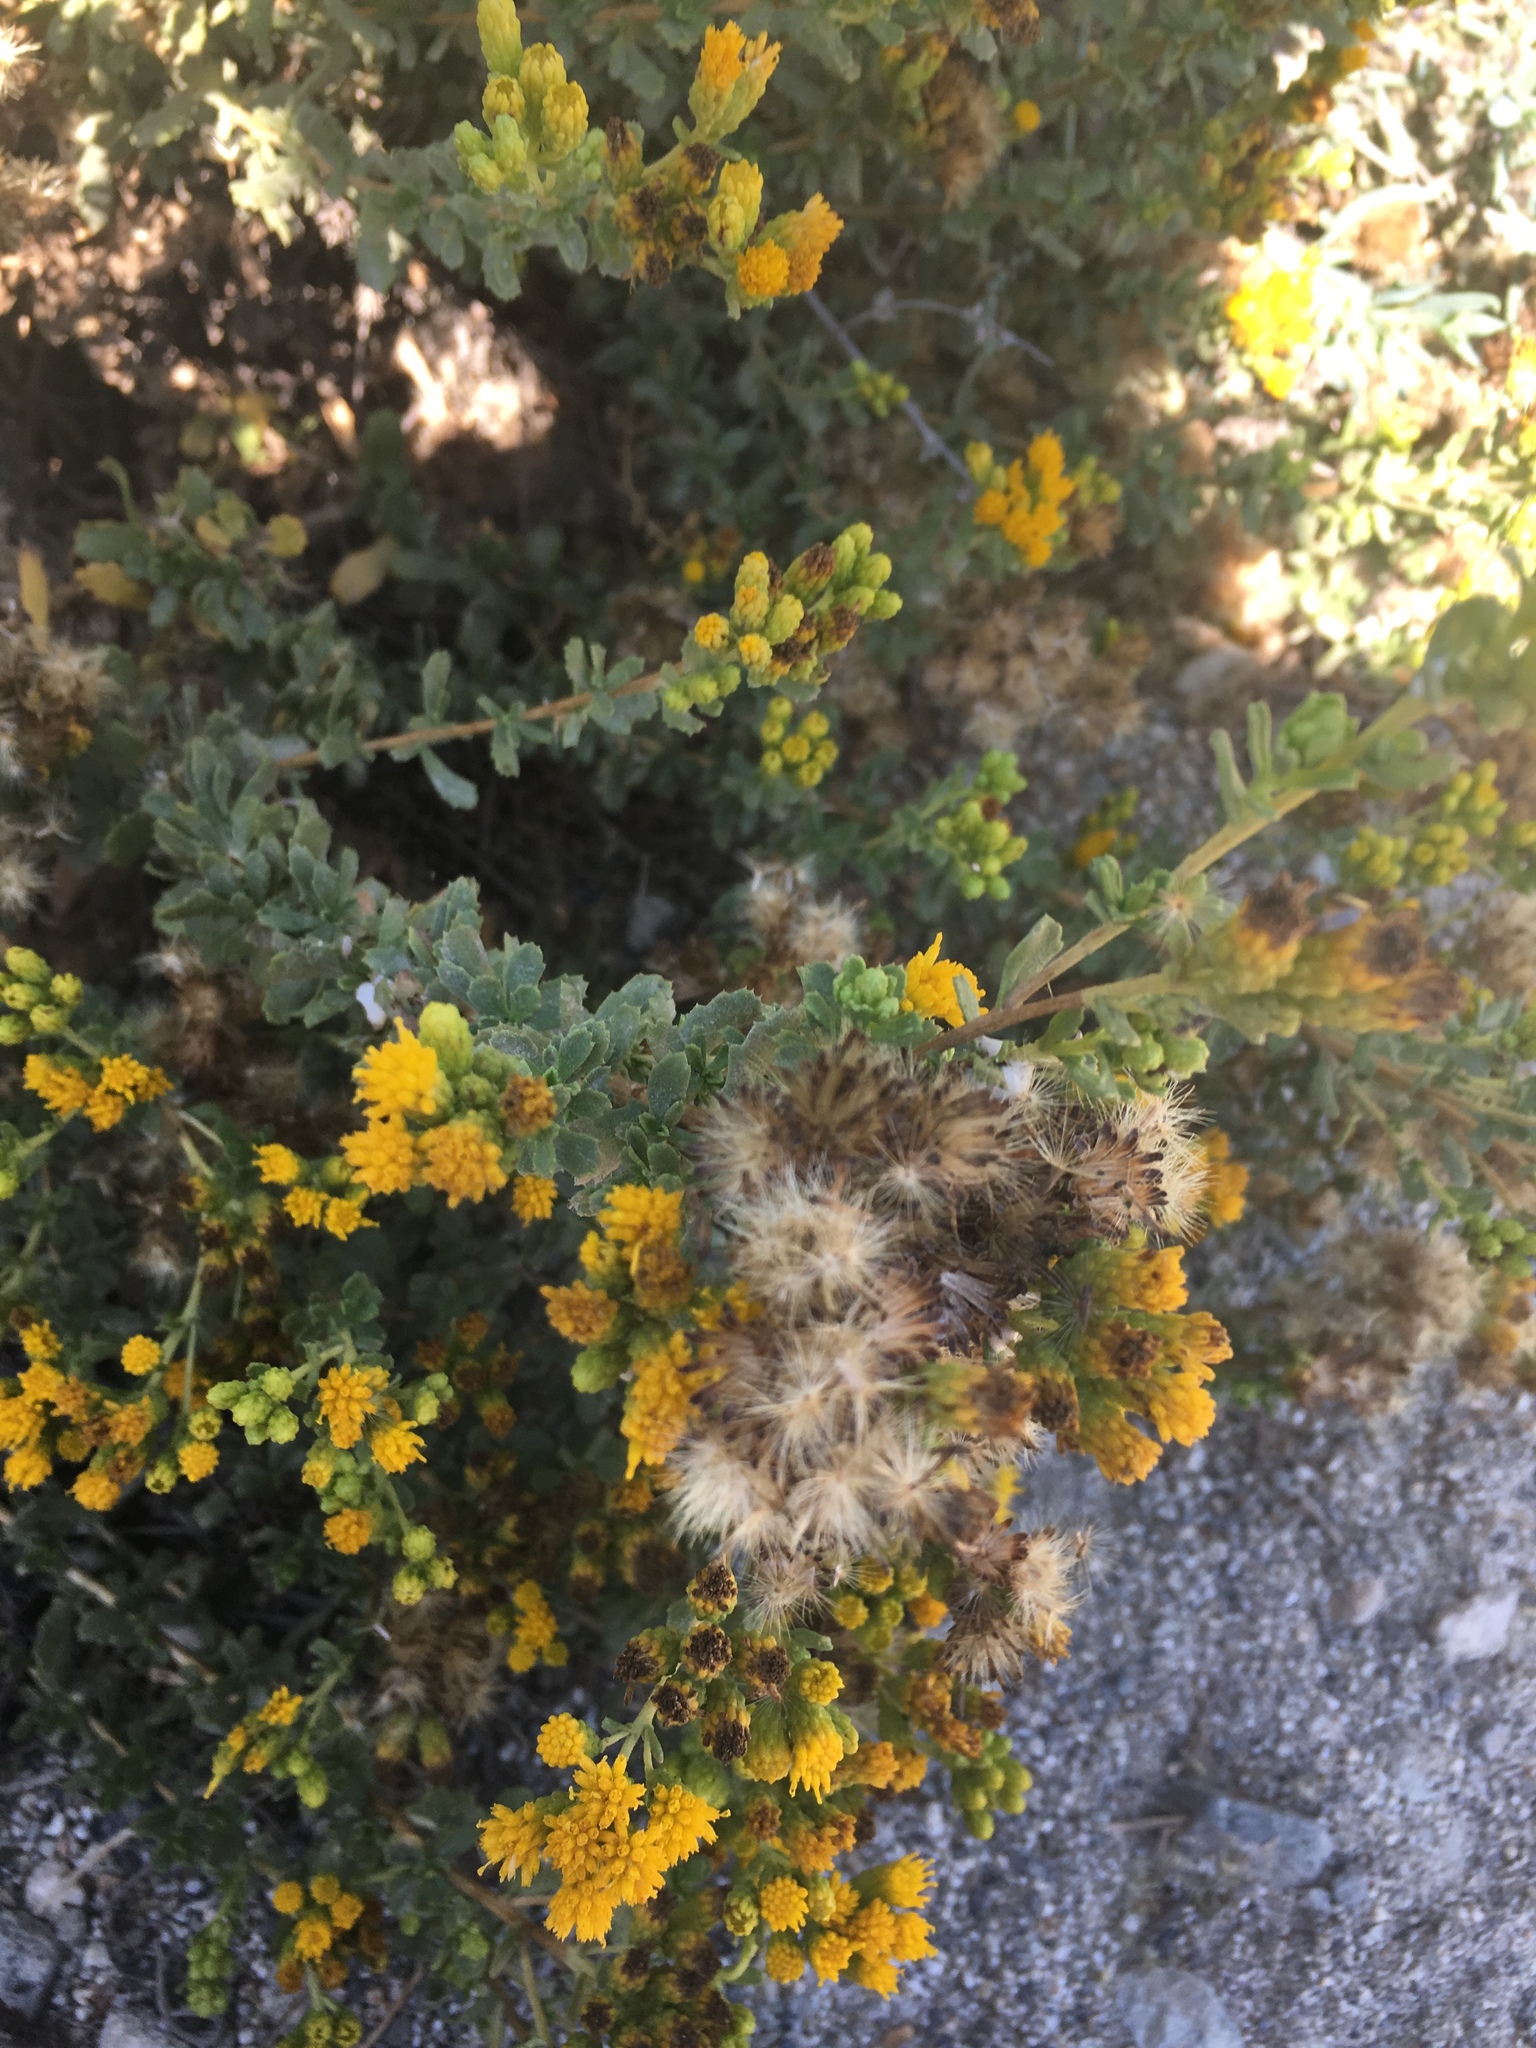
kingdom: Plantae
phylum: Tracheophyta
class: Magnoliopsida
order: Asterales
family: Asteraceae
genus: Isocoma
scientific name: Isocoma menziesii
